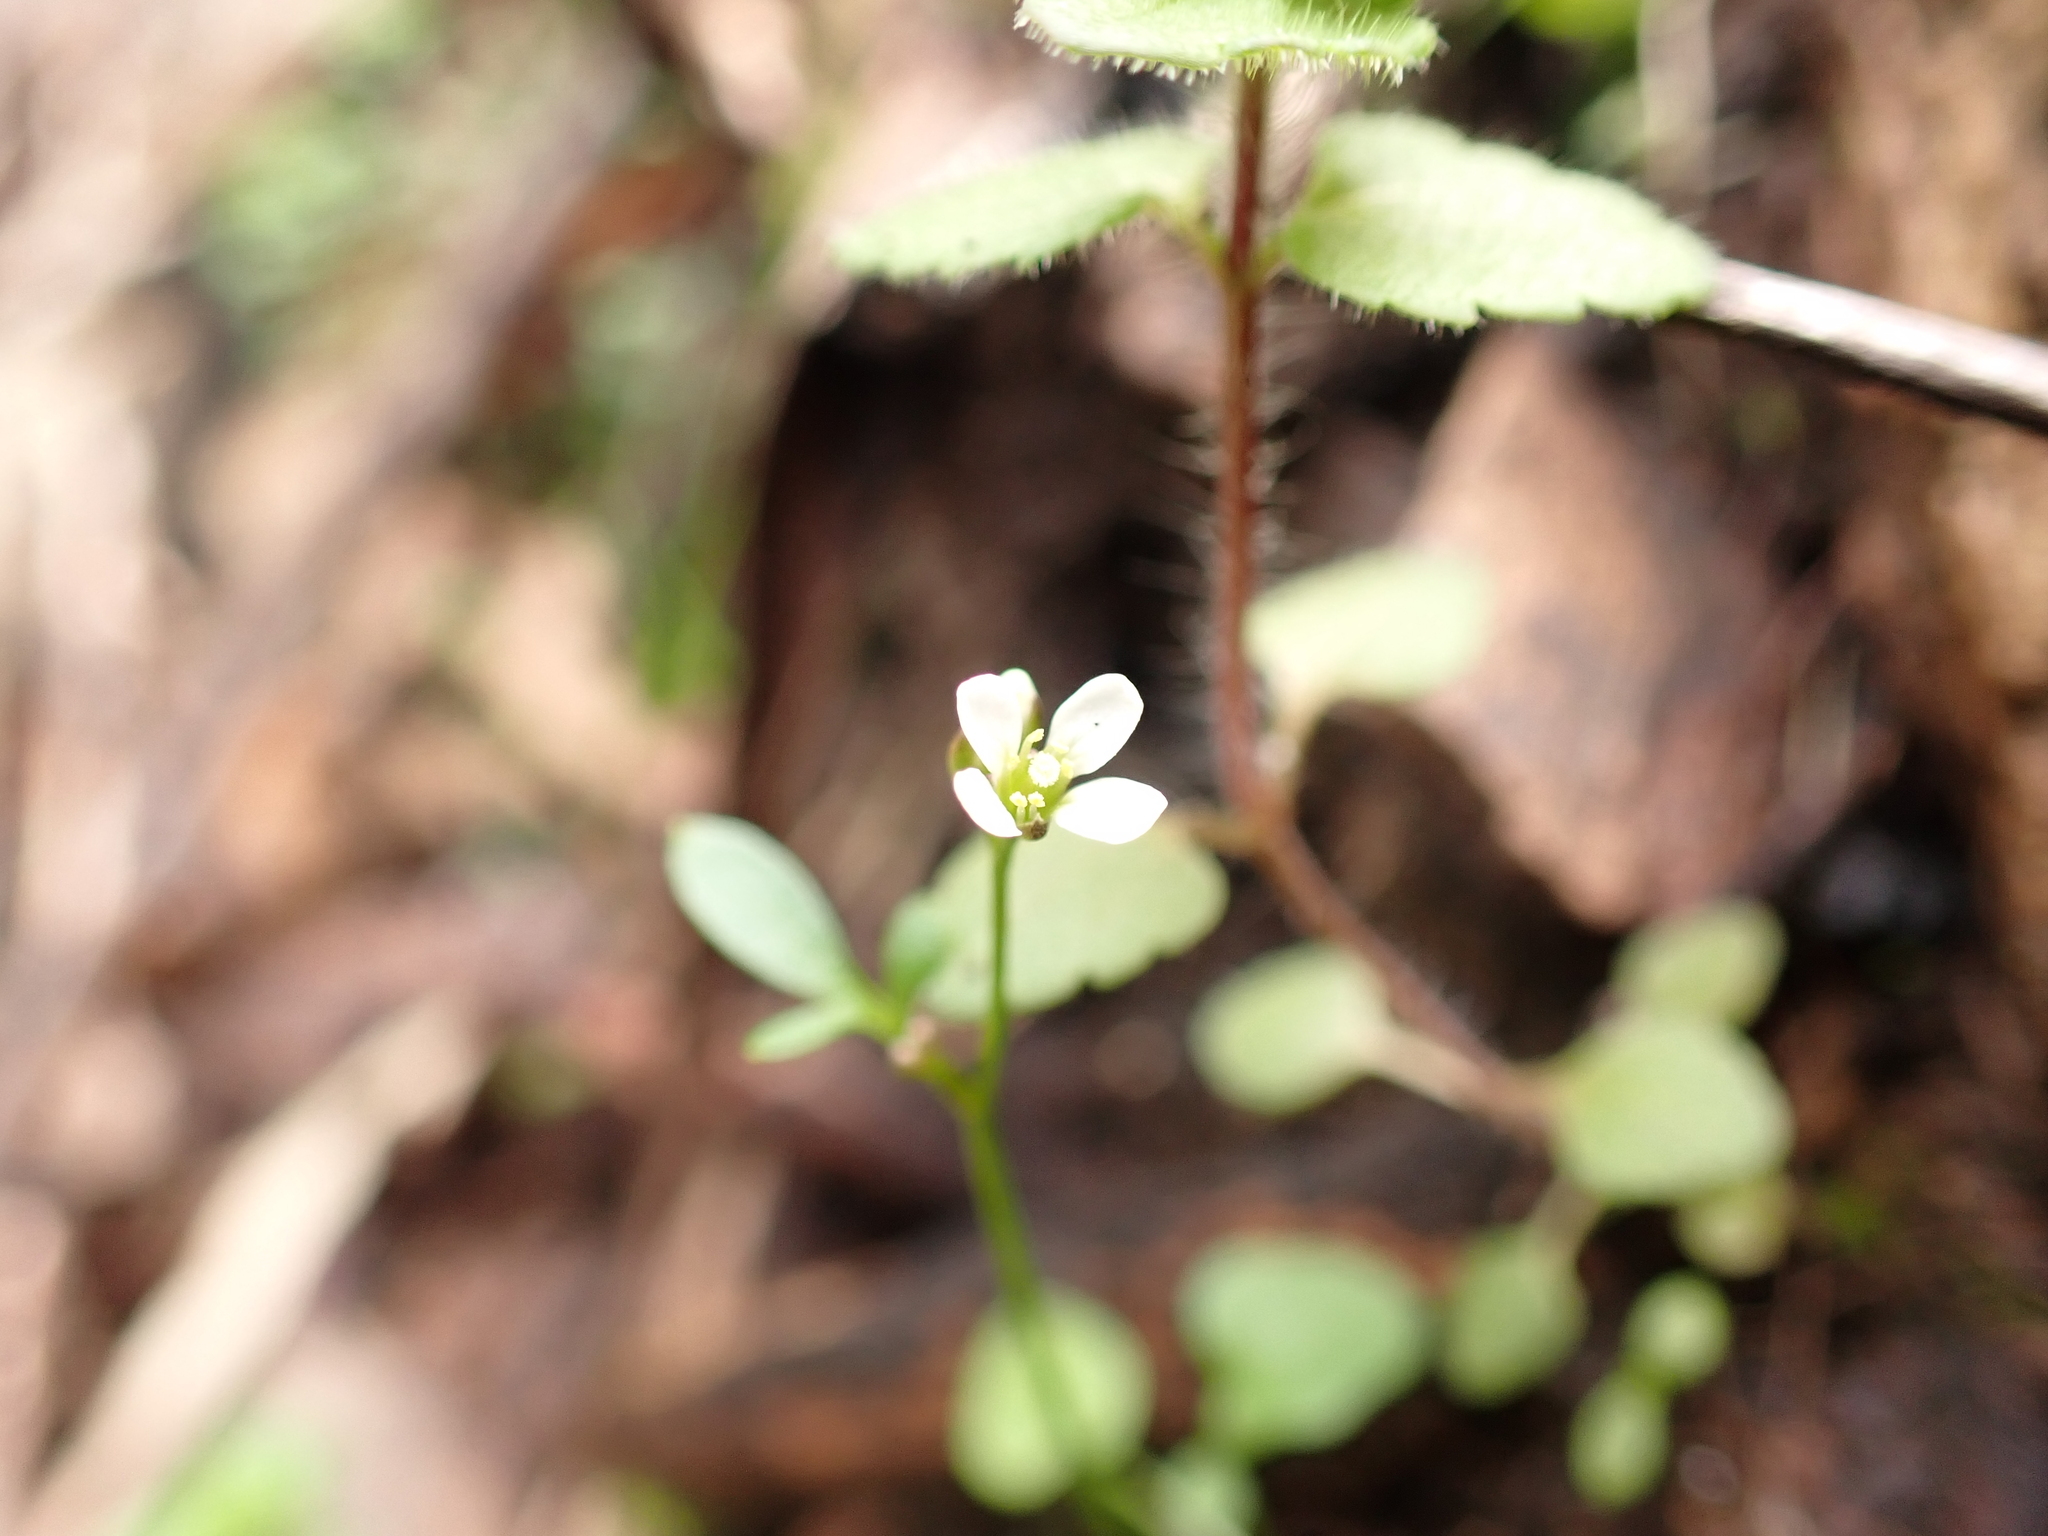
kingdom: Plantae
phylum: Tracheophyta
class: Magnoliopsida
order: Brassicales
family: Brassicaceae
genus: Cardamine
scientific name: Cardamine papillata
